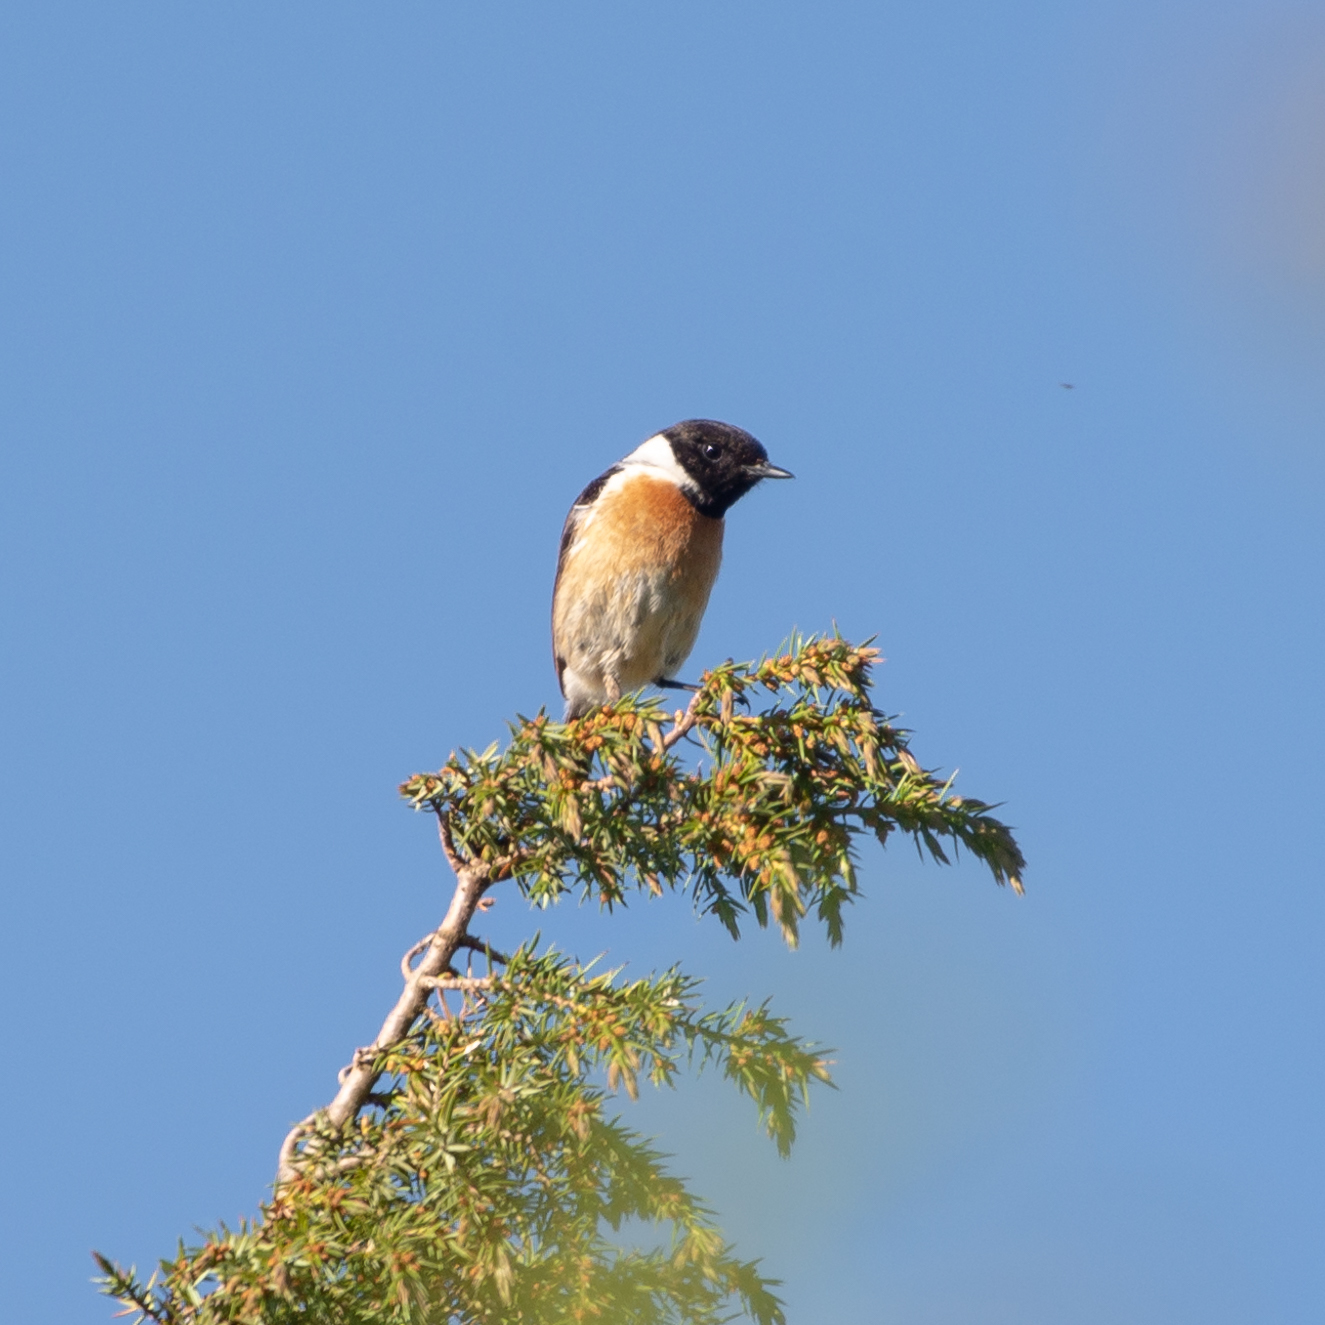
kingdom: Animalia
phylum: Chordata
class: Aves
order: Passeriformes
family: Muscicapidae
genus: Saxicola
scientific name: Saxicola rubicola
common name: European stonechat
